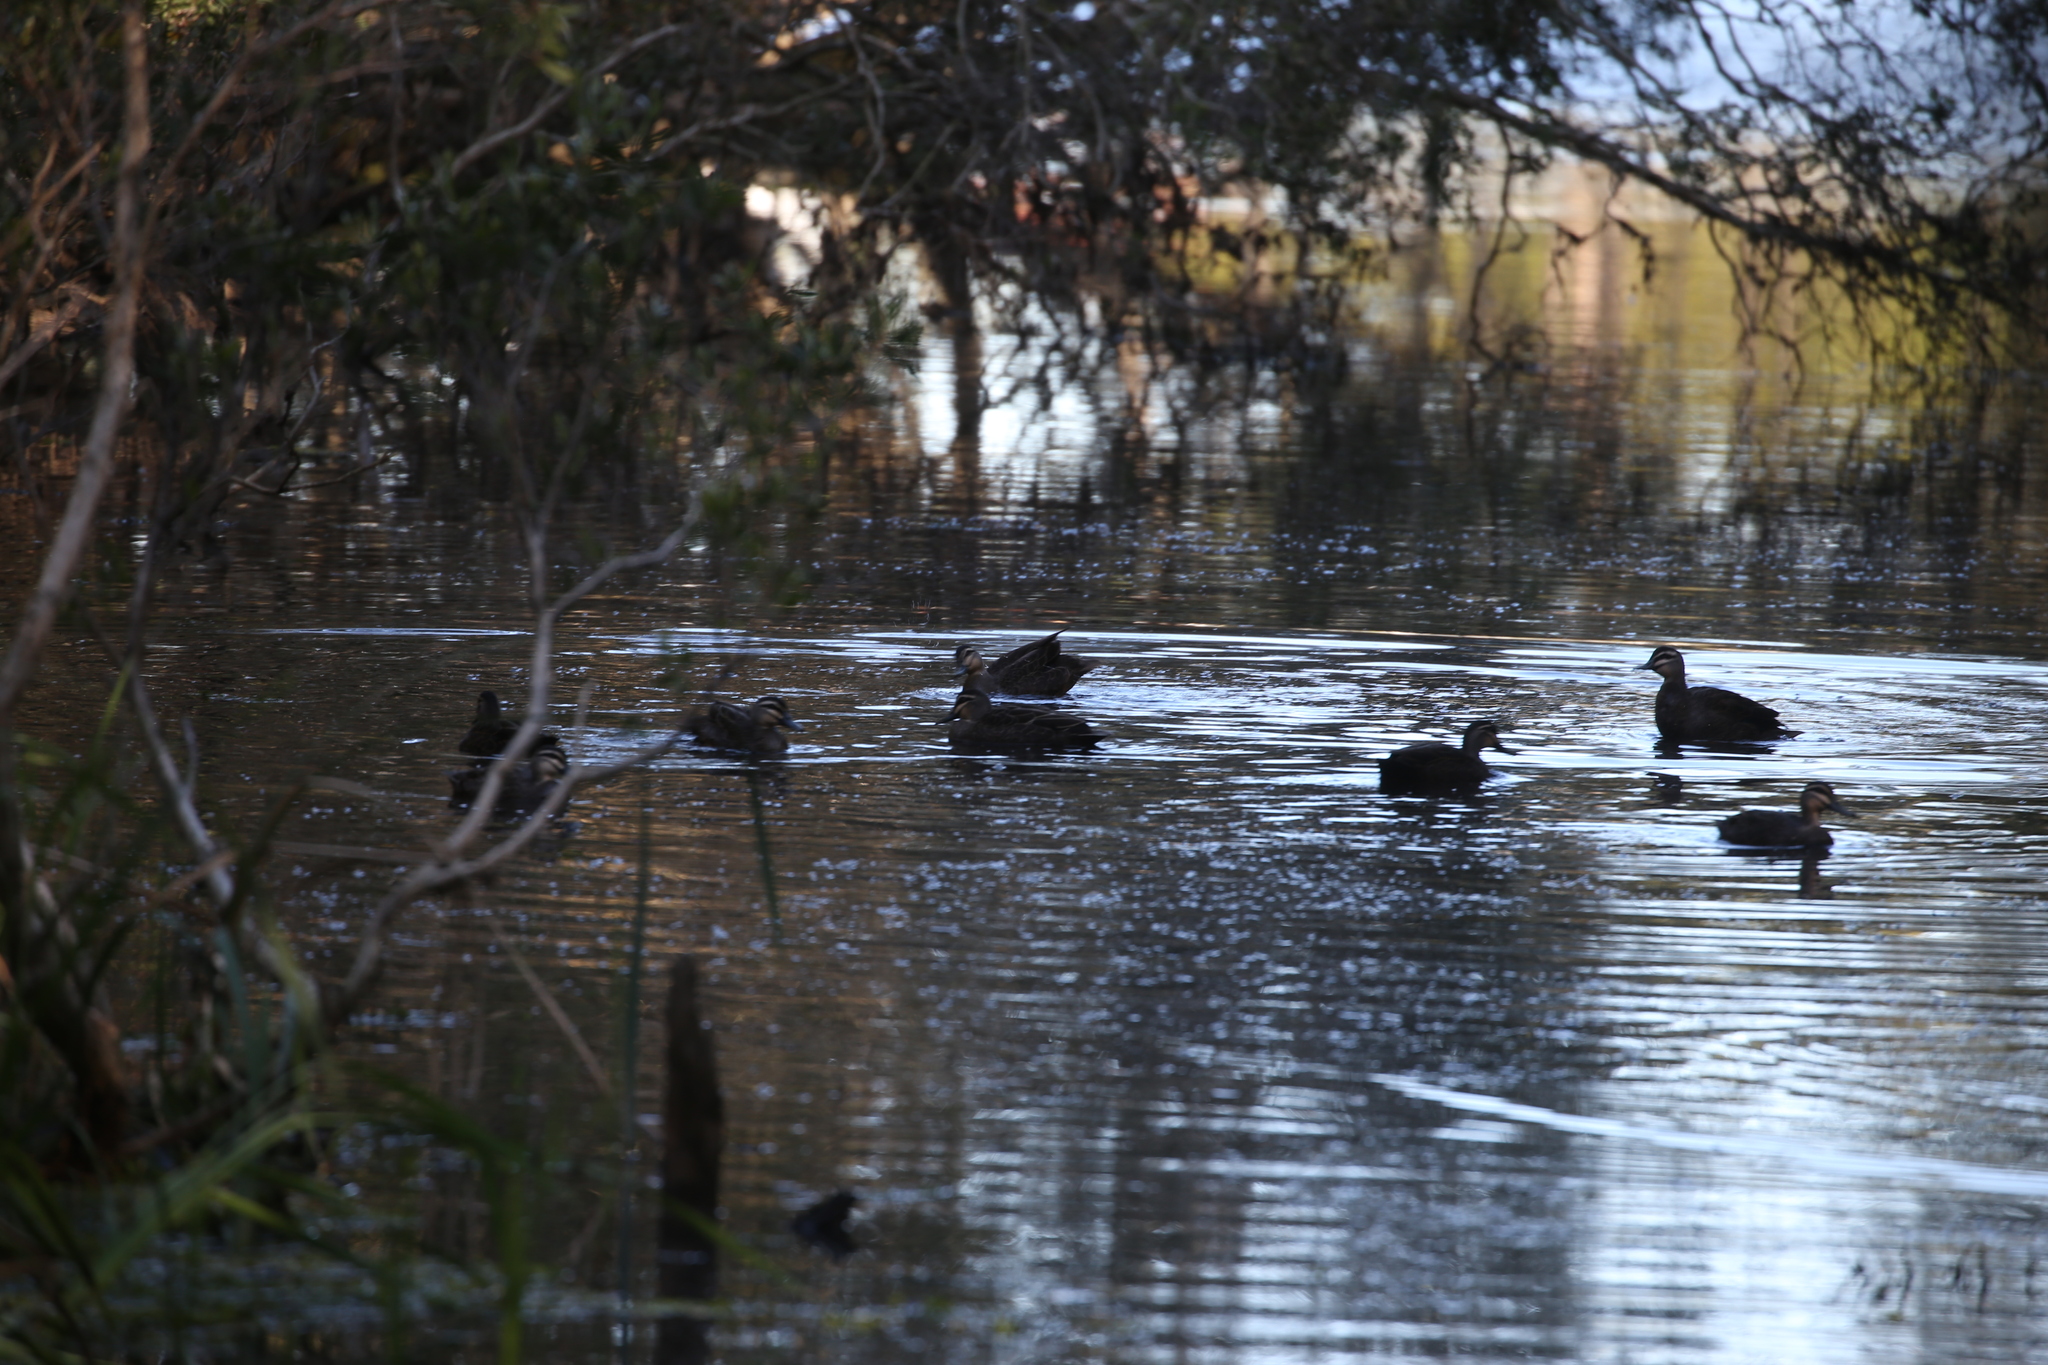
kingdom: Animalia
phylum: Chordata
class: Aves
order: Anseriformes
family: Anatidae
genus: Anas
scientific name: Anas superciliosa
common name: Pacific black duck
